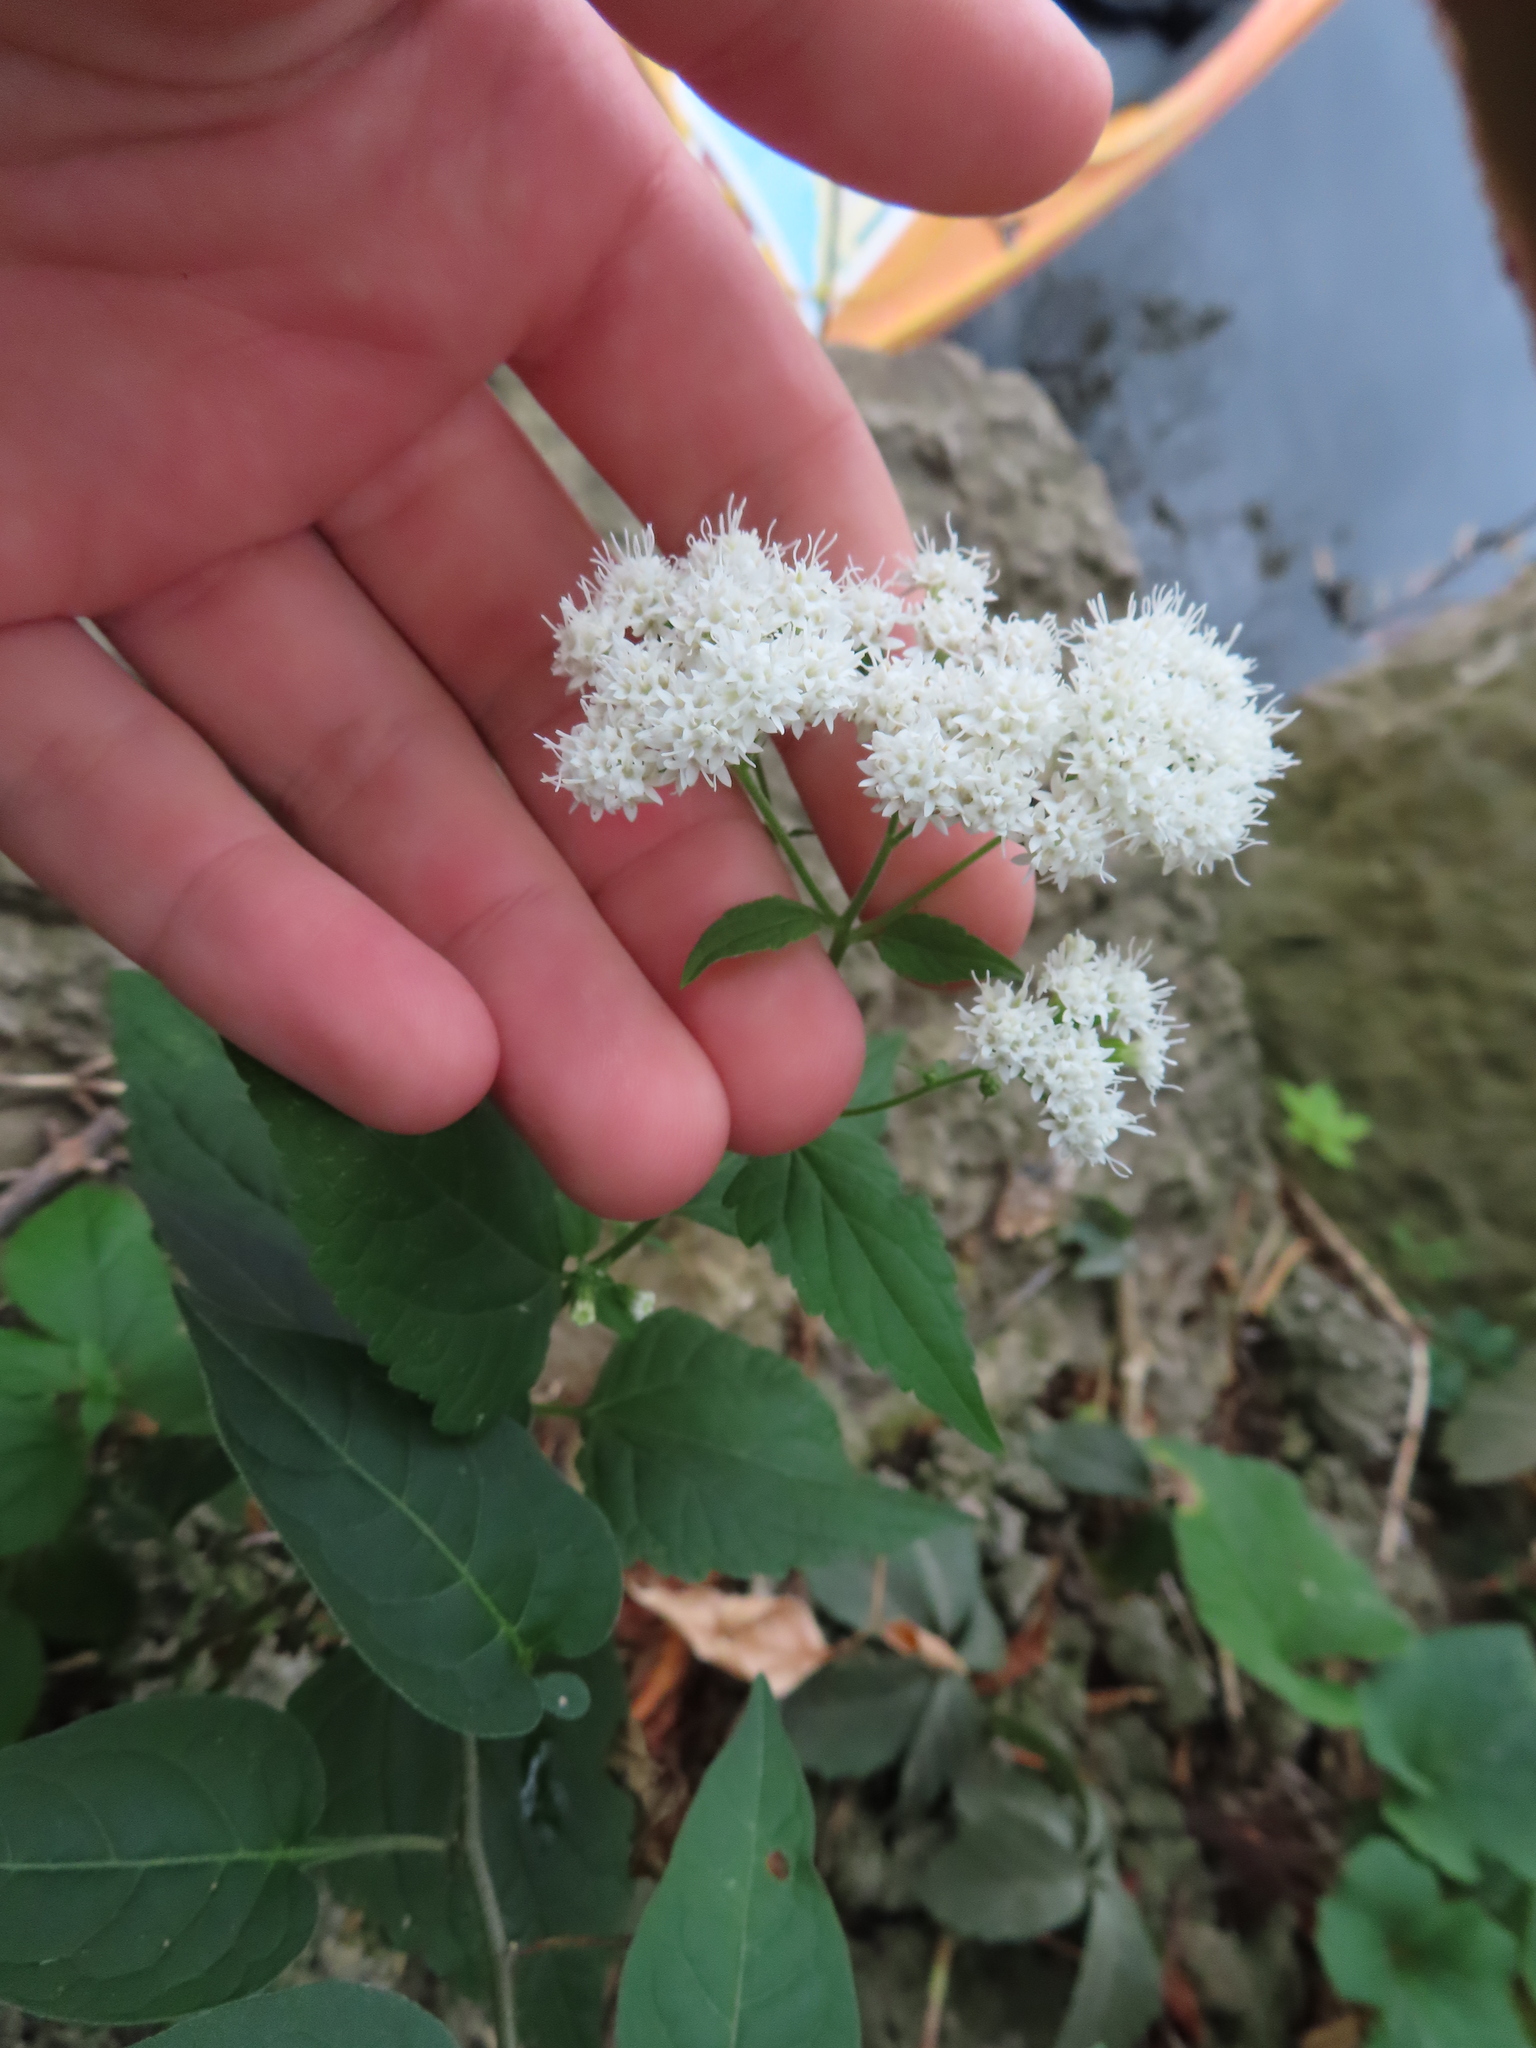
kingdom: Plantae
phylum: Tracheophyta
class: Magnoliopsida
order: Asterales
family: Asteraceae
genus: Ageratina
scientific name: Ageratina altissima
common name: White snakeroot
